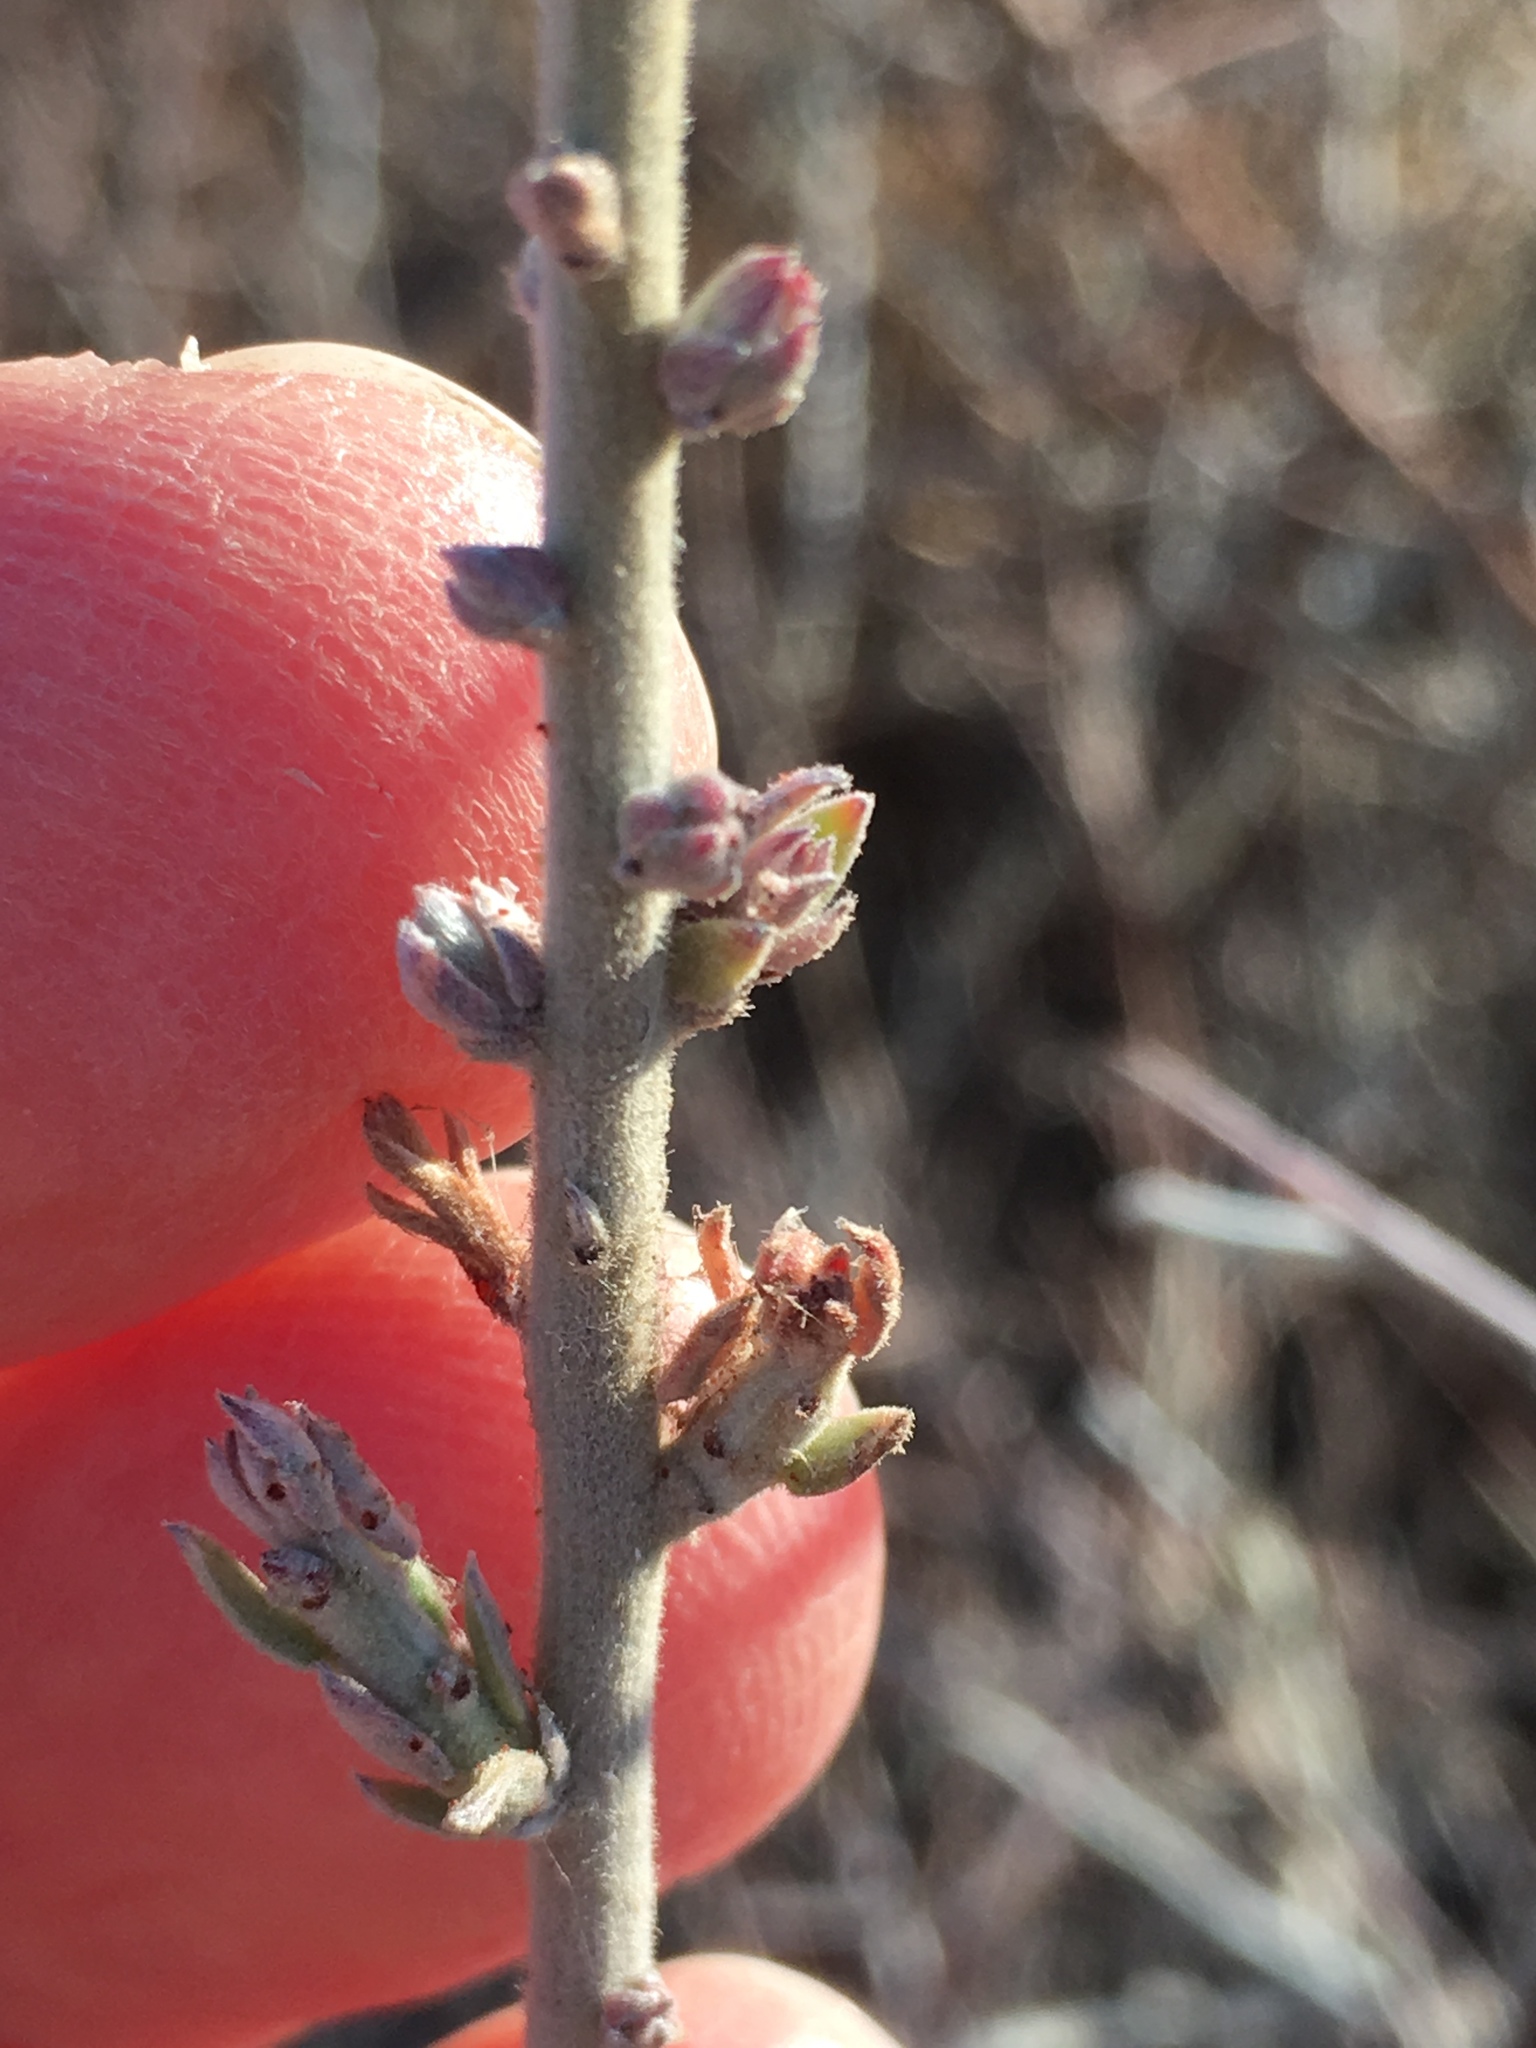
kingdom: Plantae
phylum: Tracheophyta
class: Magnoliopsida
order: Zygophyllales
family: Krameriaceae
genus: Krameria
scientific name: Krameria bicolor
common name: White ratany
